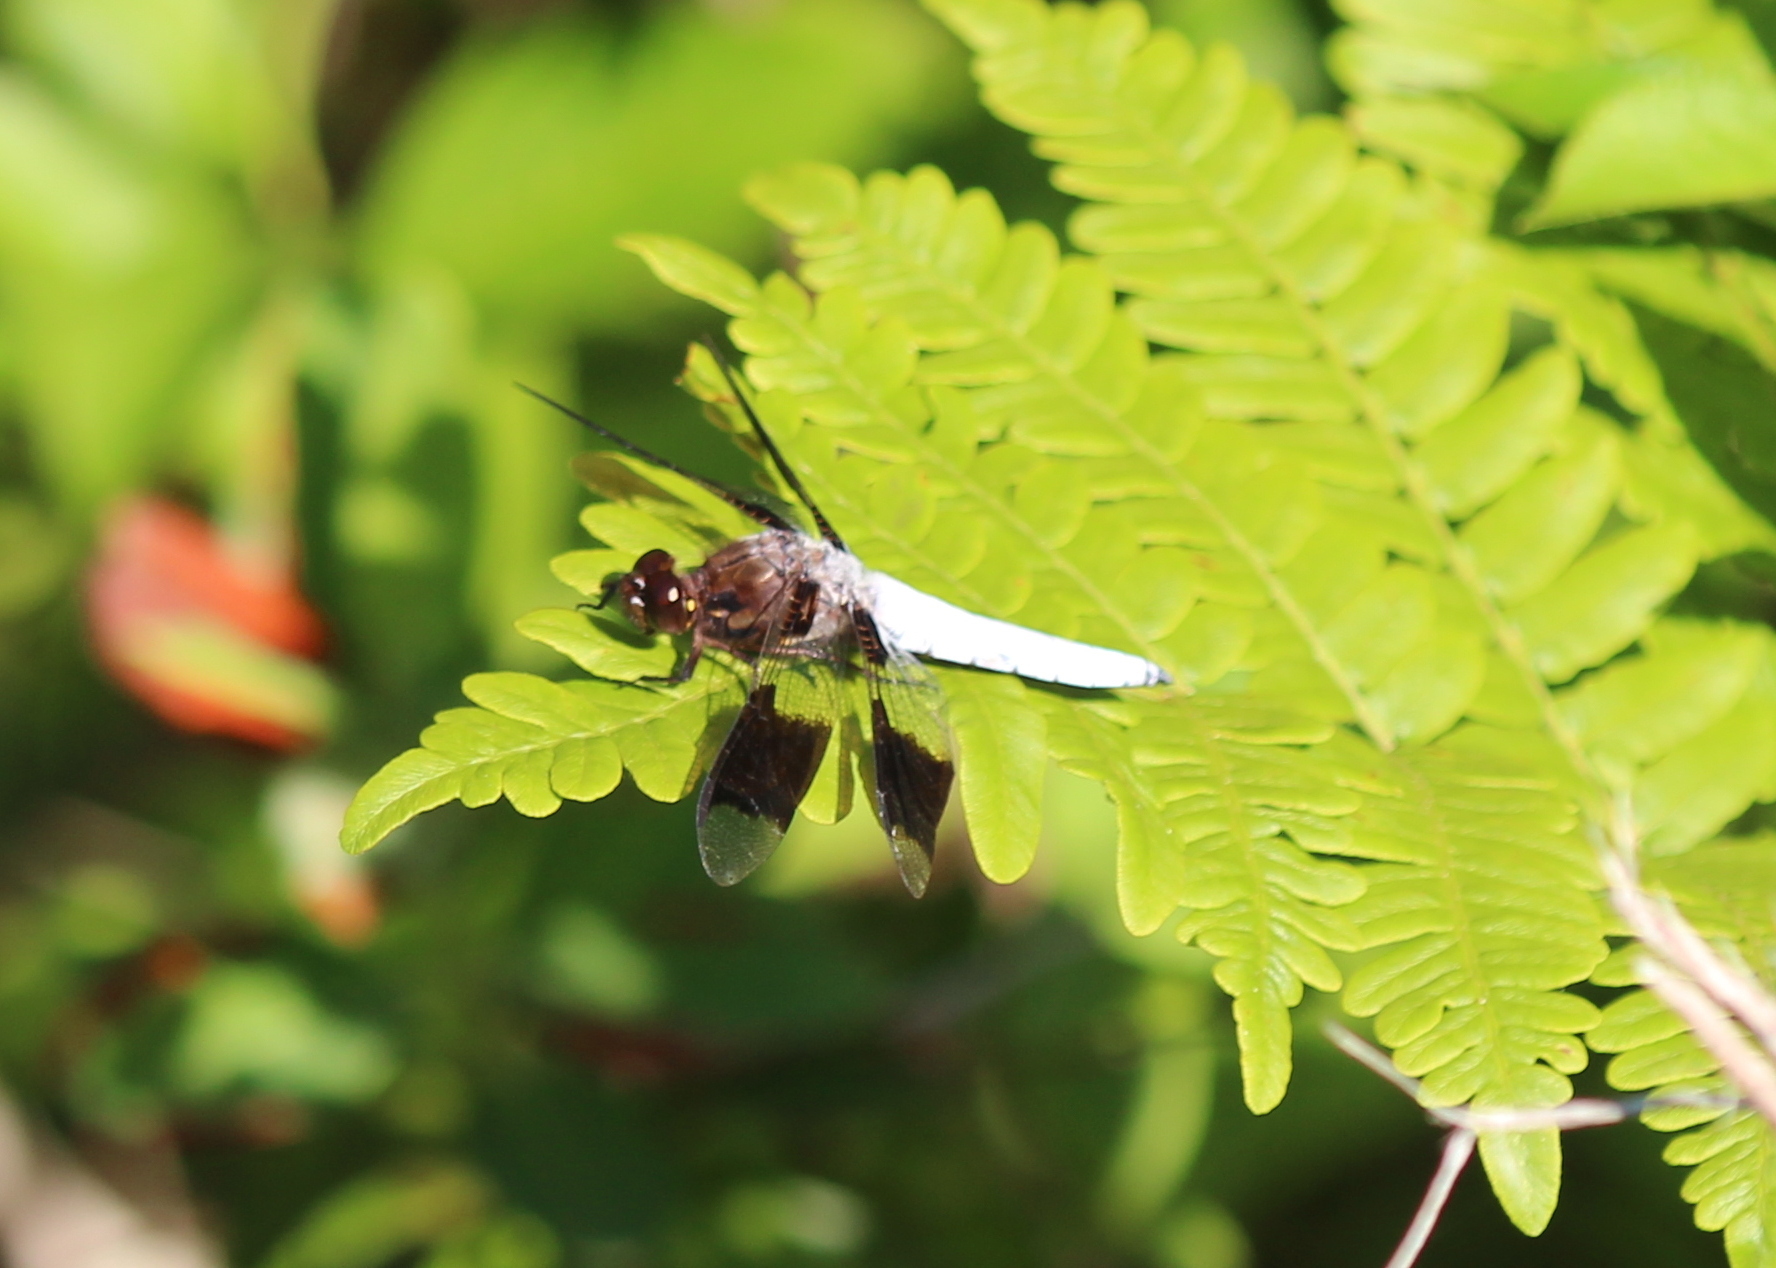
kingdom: Animalia
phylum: Arthropoda
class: Insecta
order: Odonata
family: Libellulidae
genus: Plathemis
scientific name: Plathemis lydia
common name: Common whitetail
